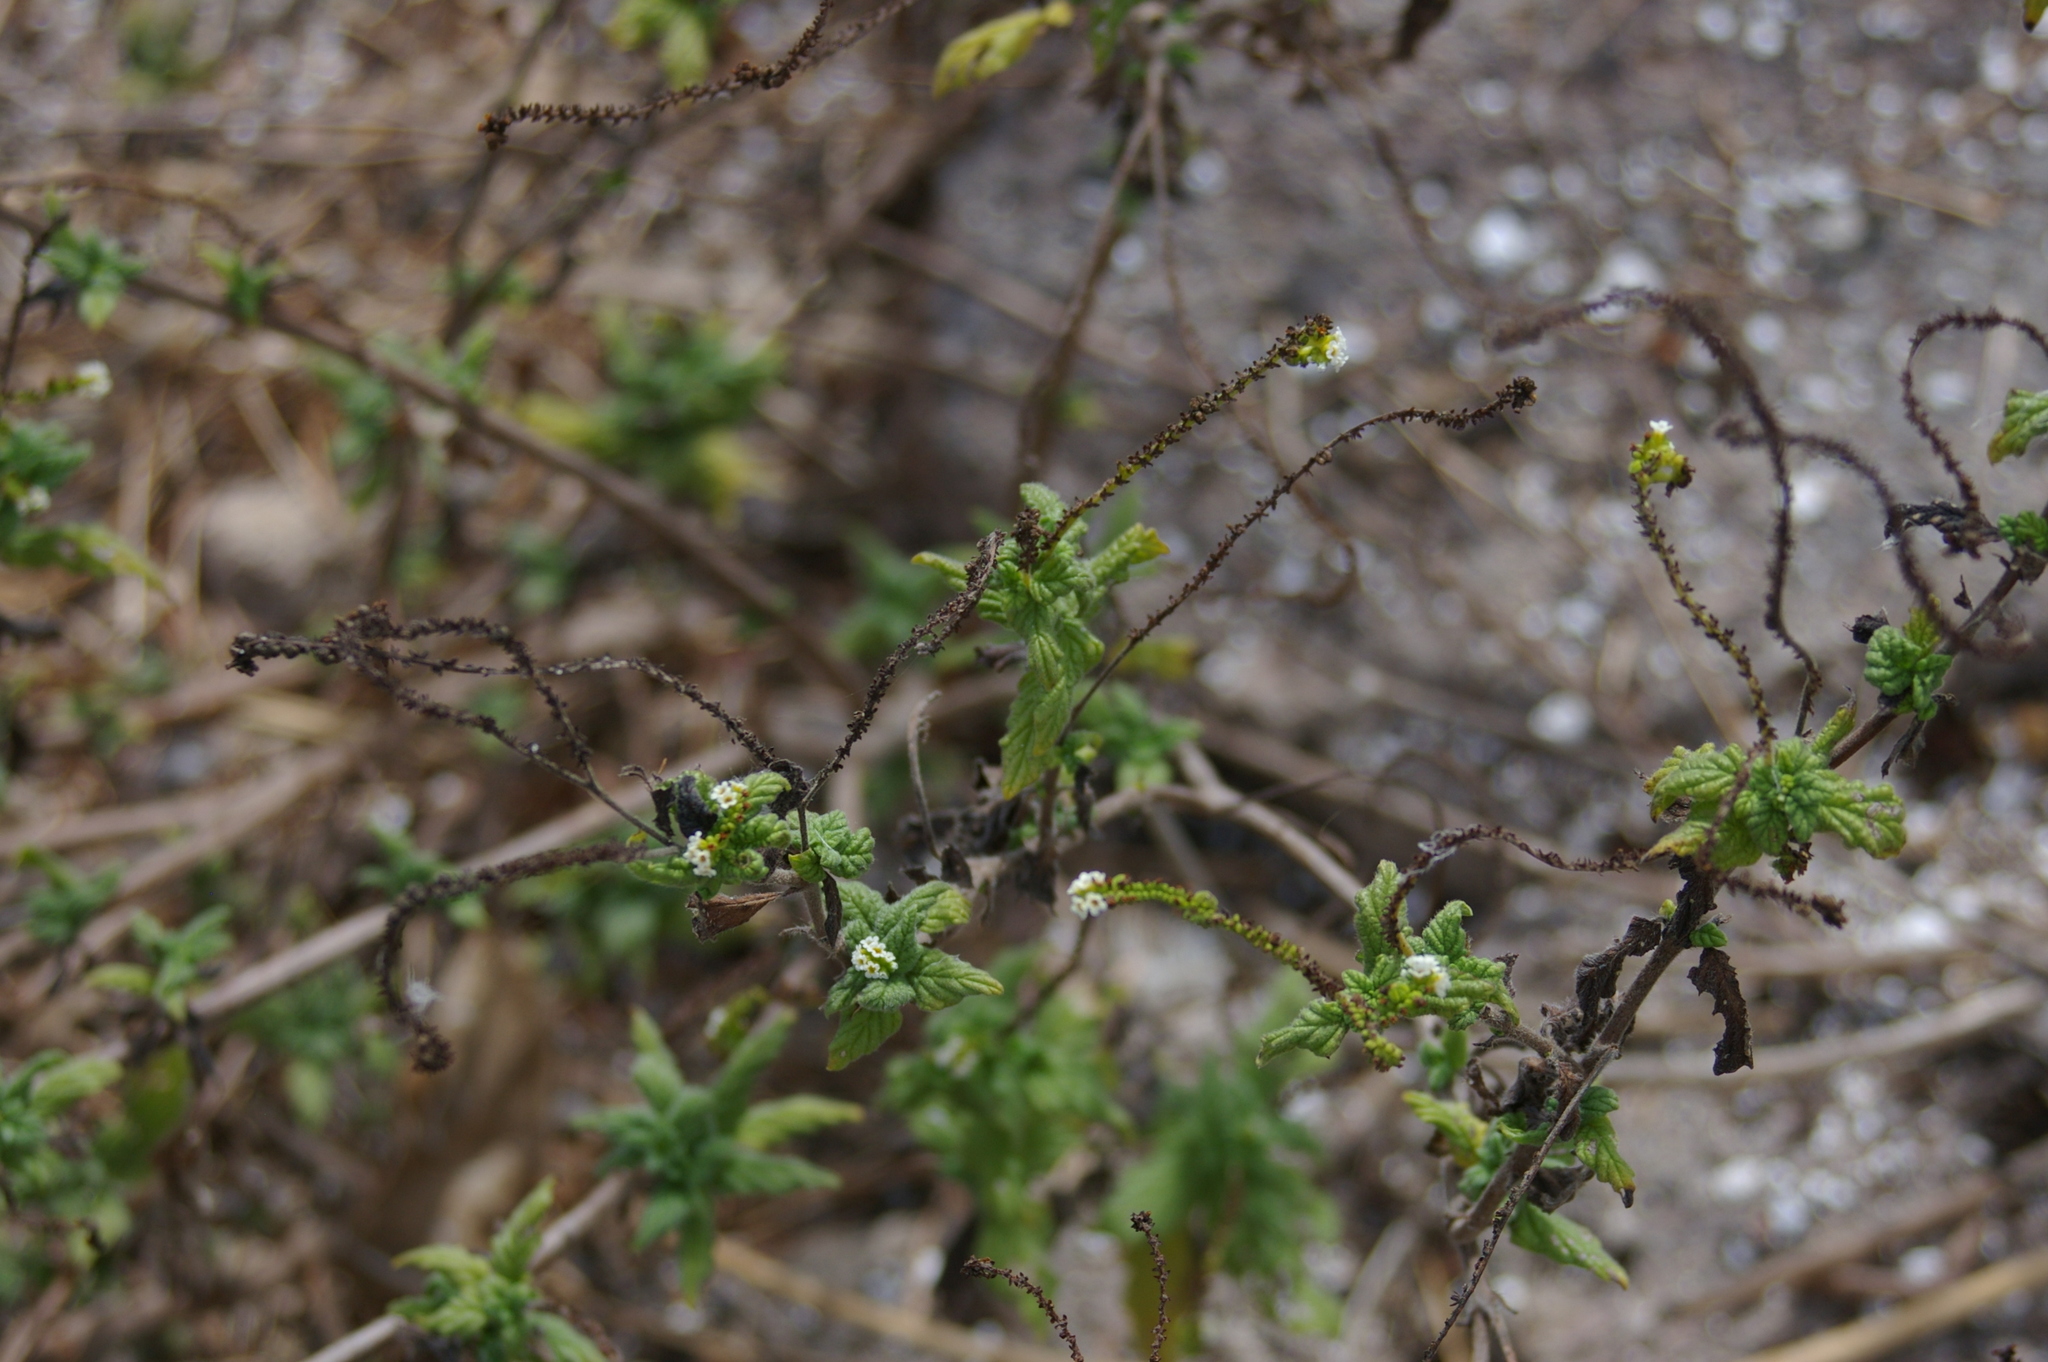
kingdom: Plantae
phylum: Tracheophyta
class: Magnoliopsida
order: Boraginales
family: Heliotropiaceae
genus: Heliotropium
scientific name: Heliotropium angiospermum
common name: Eye bright
